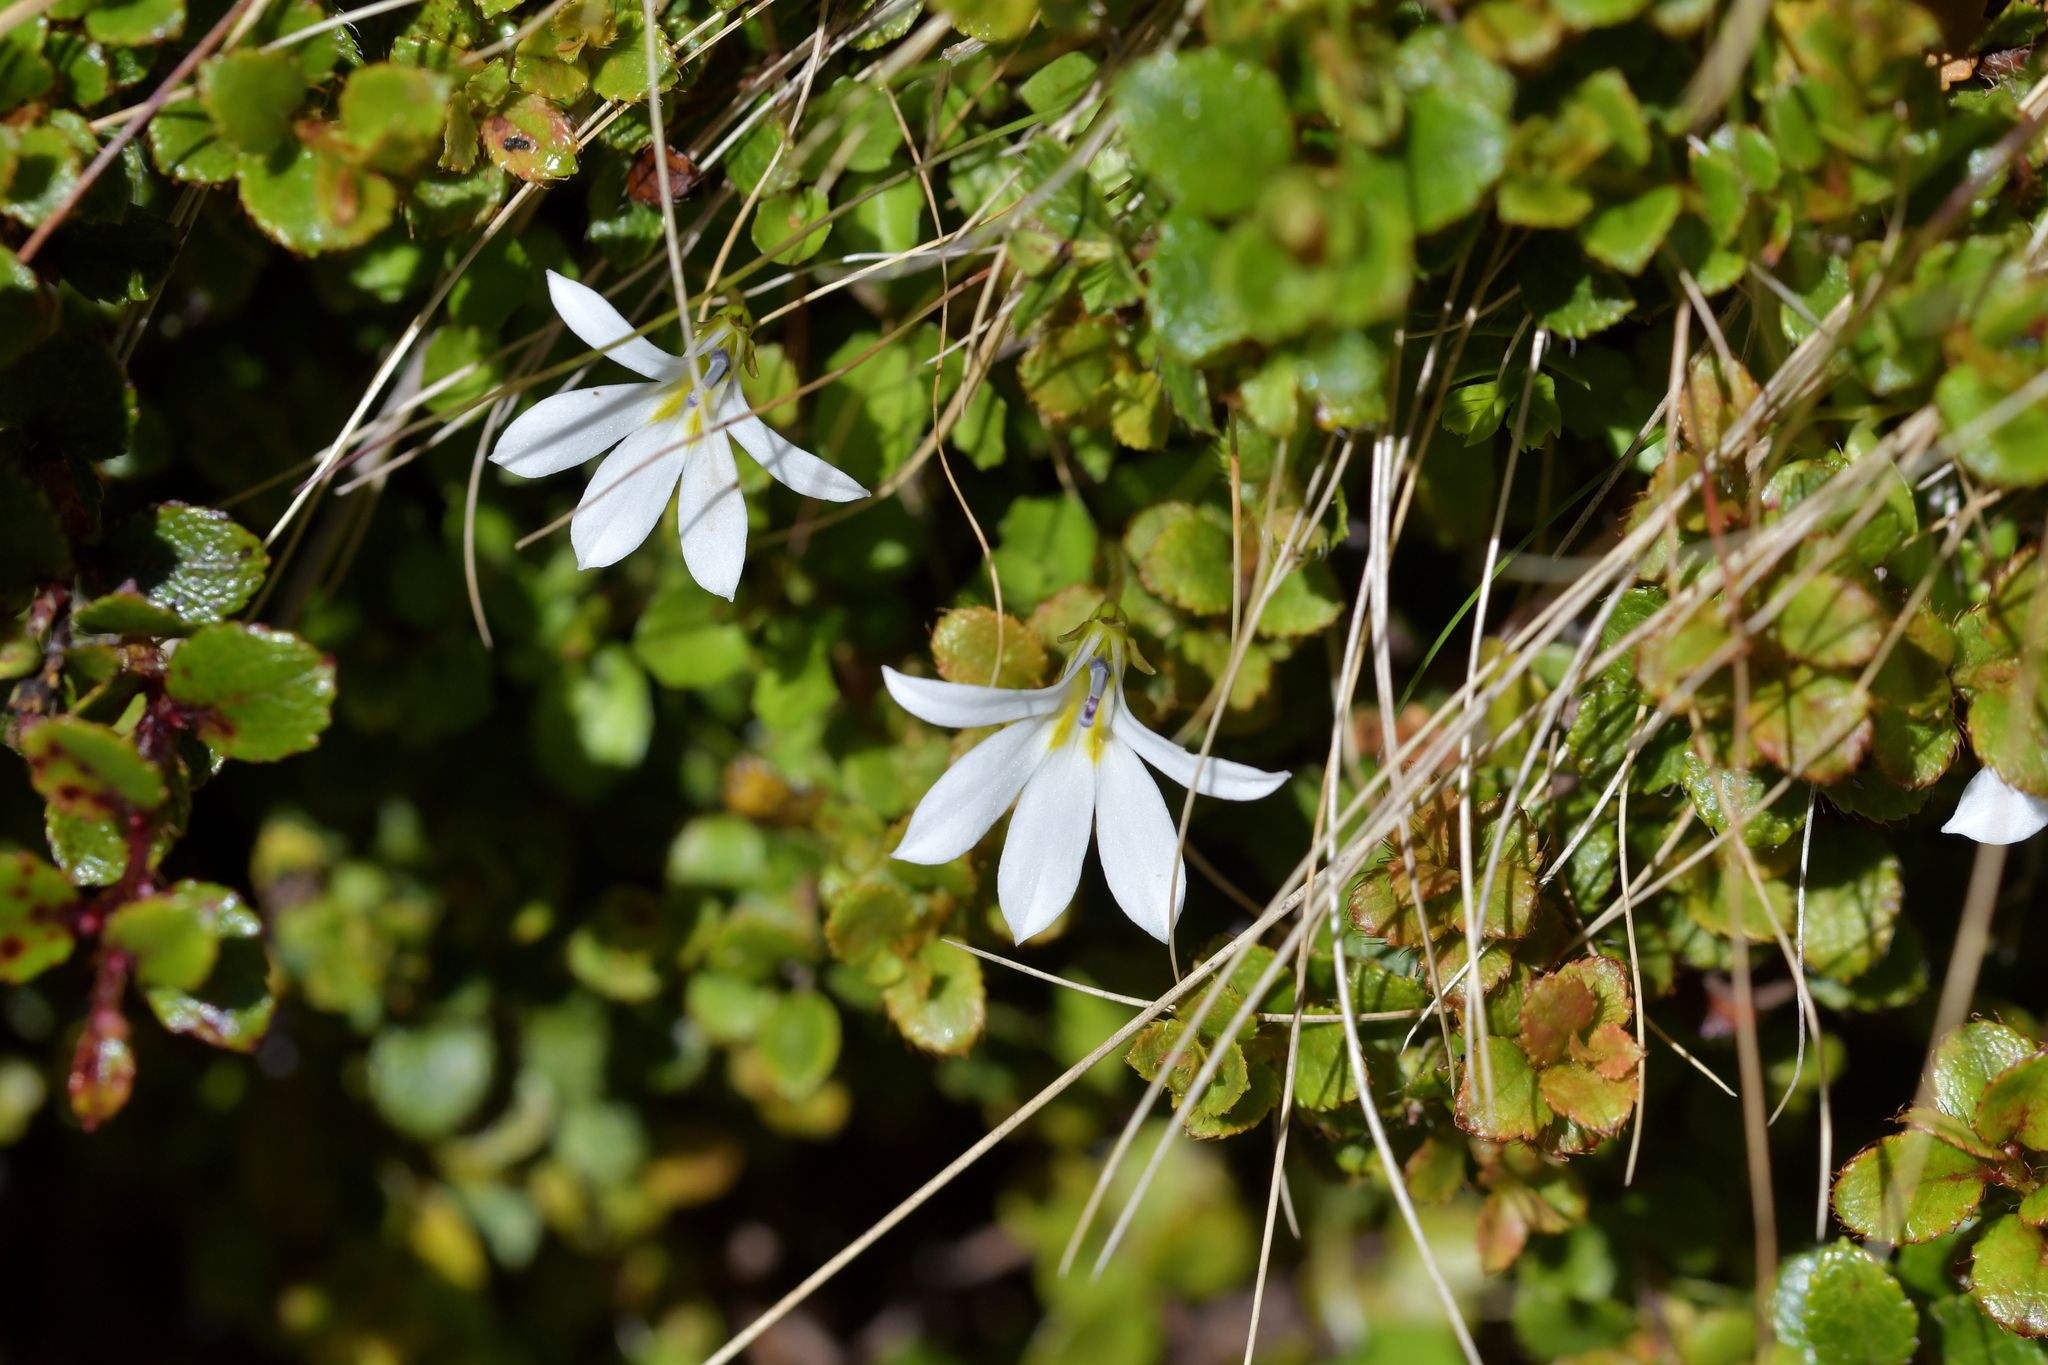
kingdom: Plantae
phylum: Tracheophyta
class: Magnoliopsida
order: Asterales
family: Campanulaceae
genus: Lobelia
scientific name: Lobelia angulata
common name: Lawn lobelia
